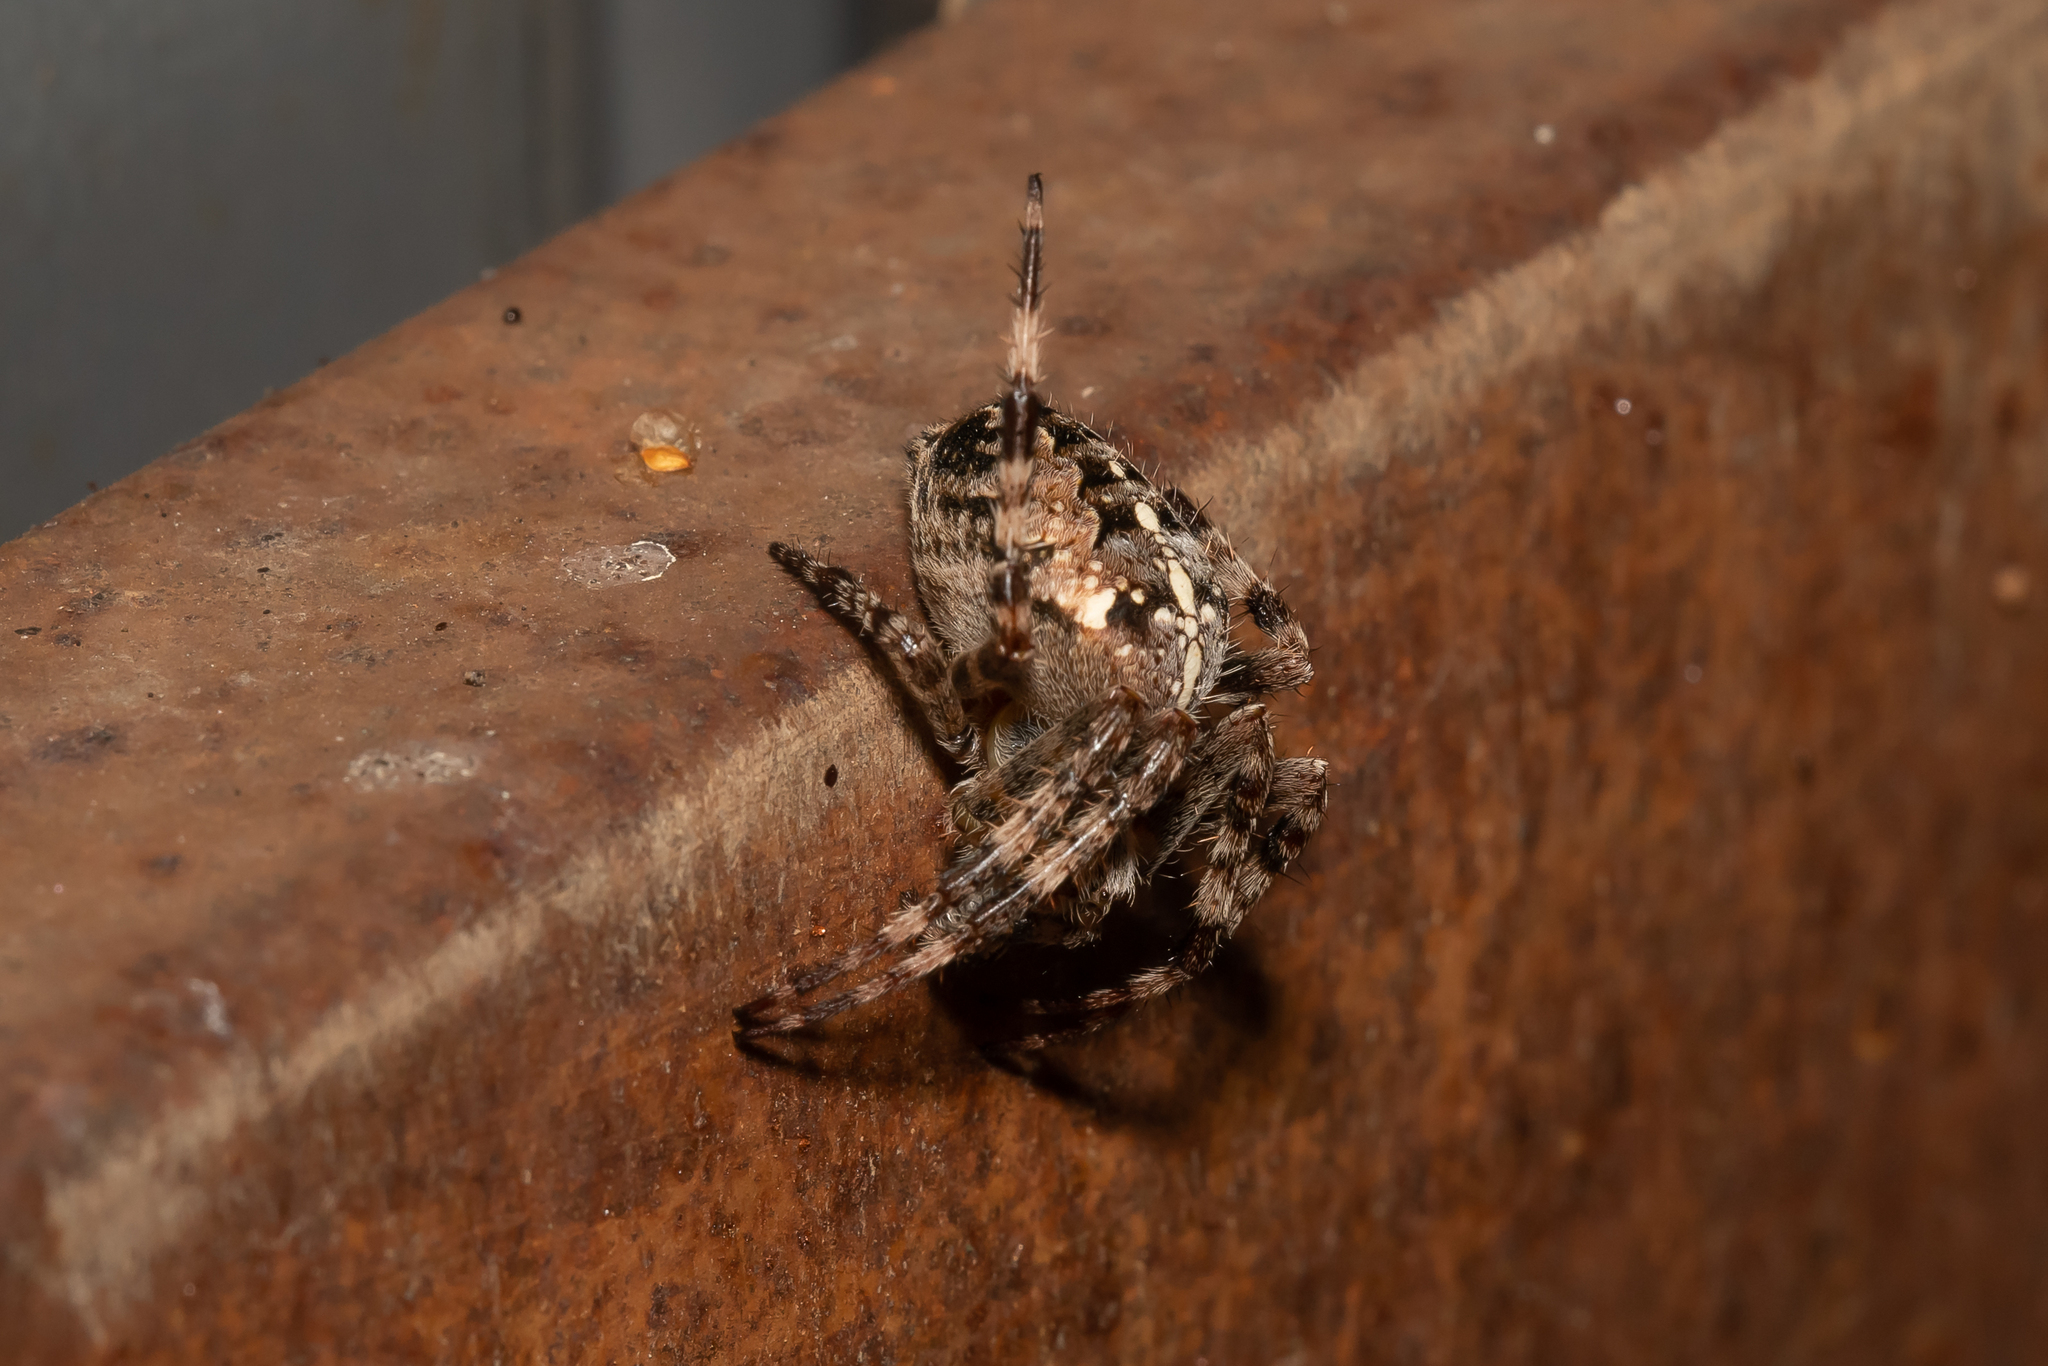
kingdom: Animalia
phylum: Arthropoda
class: Arachnida
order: Araneae
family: Araneidae
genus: Araneus
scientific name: Araneus diadematus
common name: Cross orbweaver
